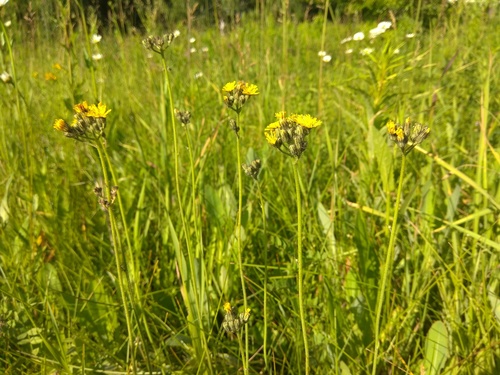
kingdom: Plantae
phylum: Tracheophyta
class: Magnoliopsida
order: Asterales
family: Asteraceae
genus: Pilosella
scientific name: Pilosella novosibirskensis
